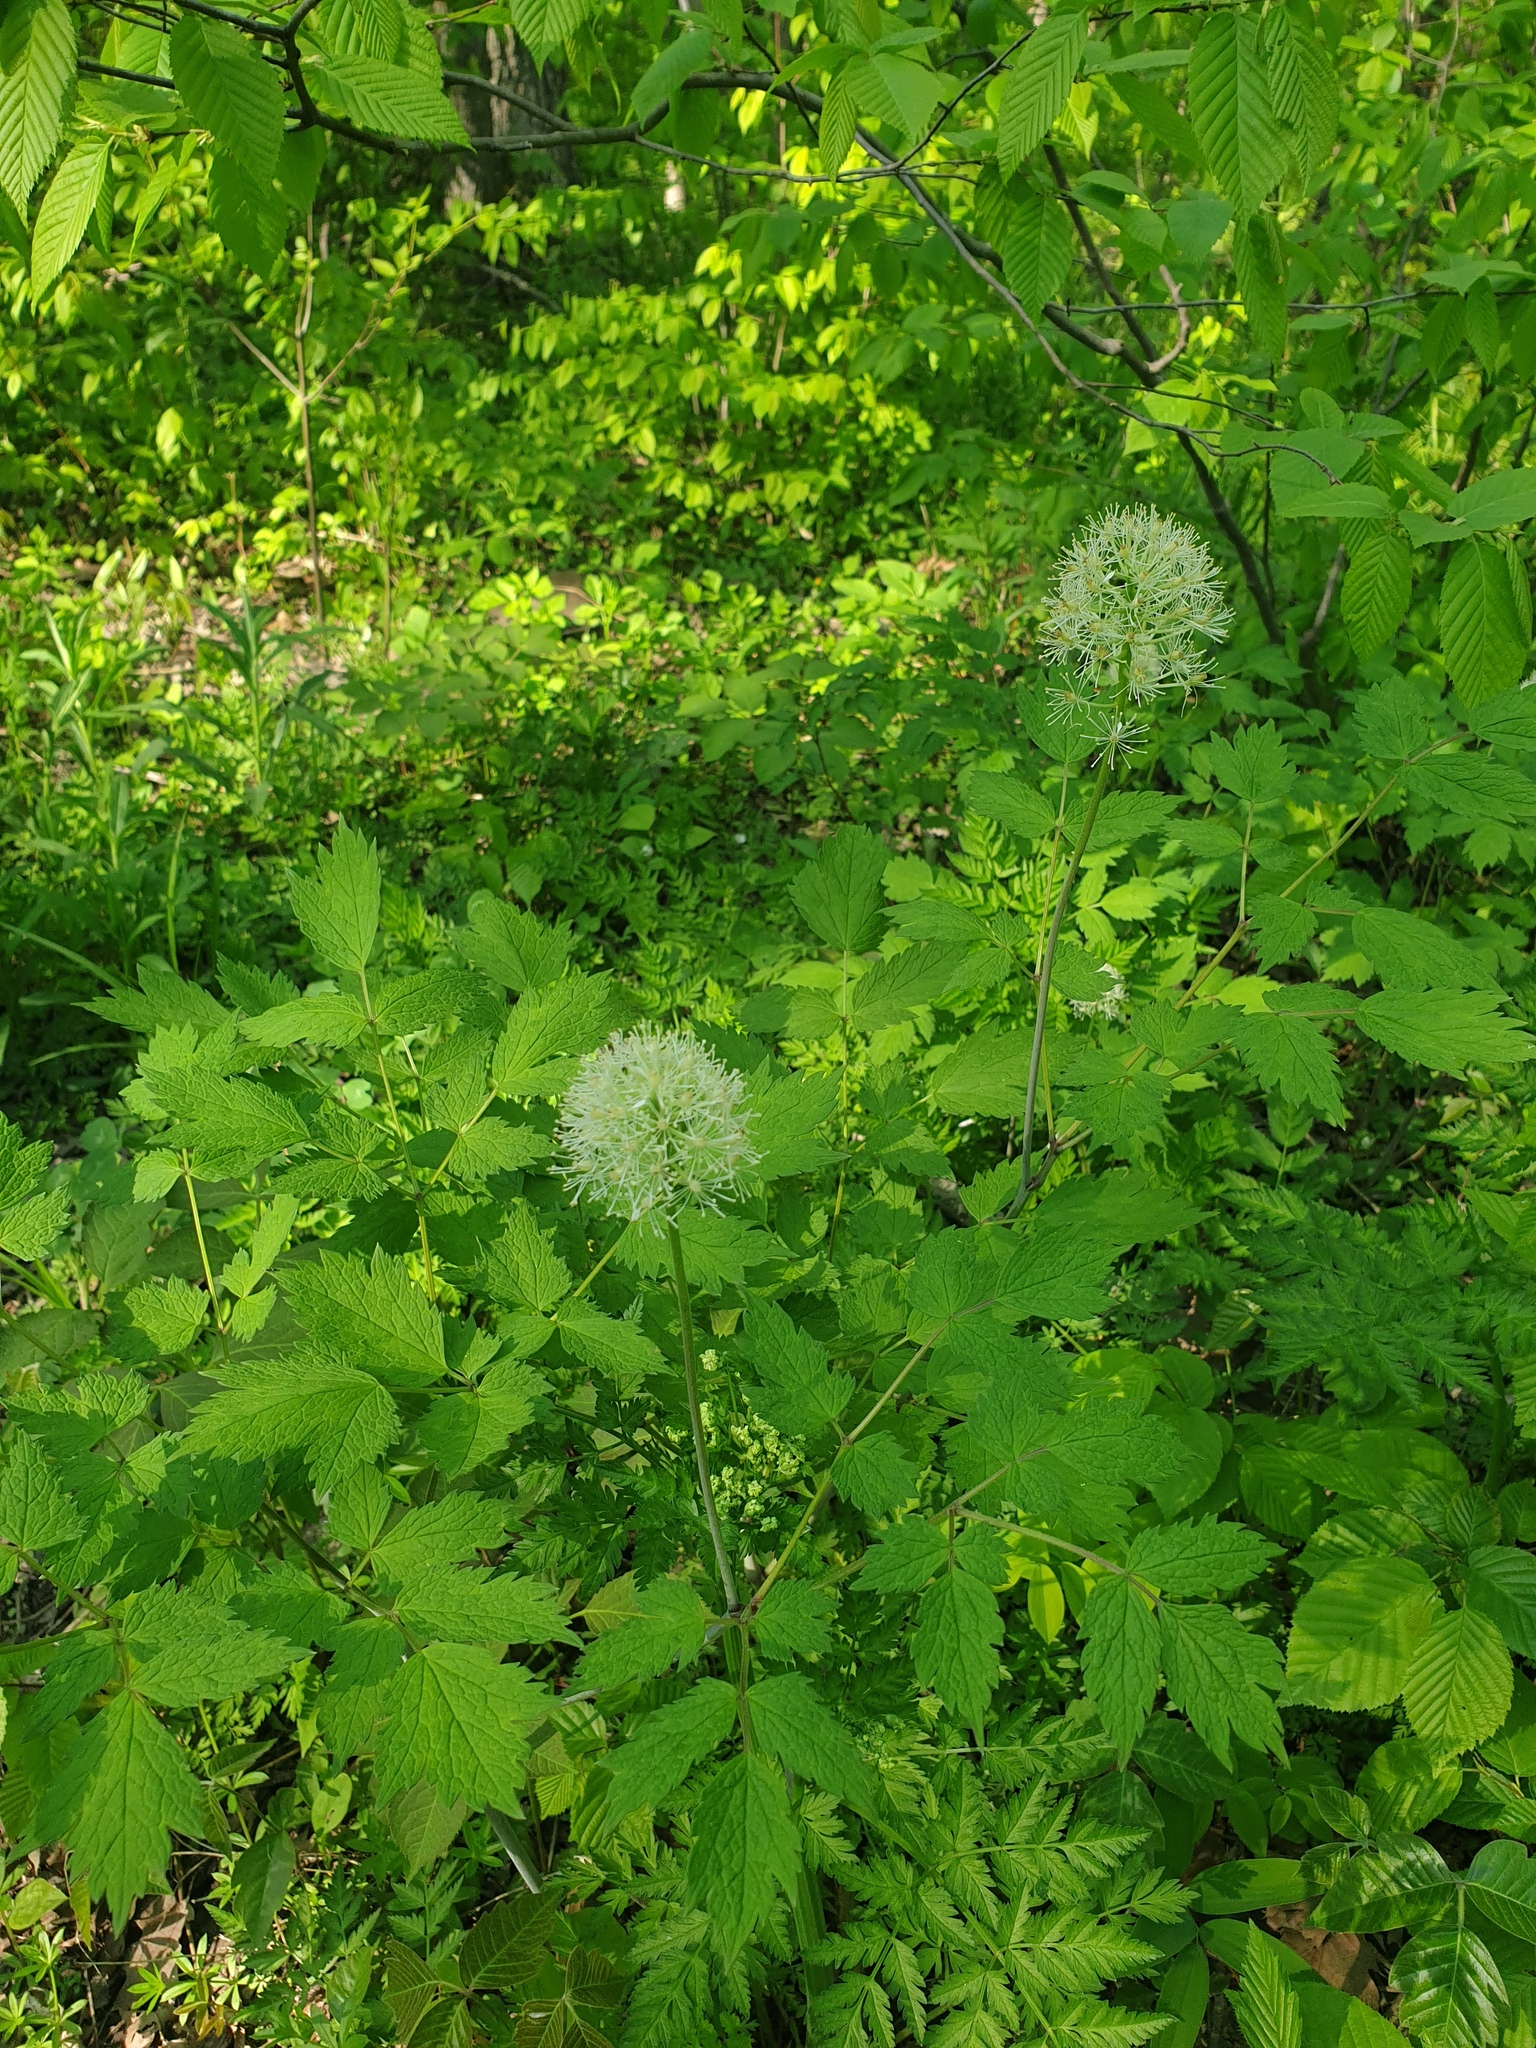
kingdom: Plantae
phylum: Tracheophyta
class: Magnoliopsida
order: Ranunculales
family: Ranunculaceae
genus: Actaea
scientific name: Actaea rubra
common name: Red baneberry
